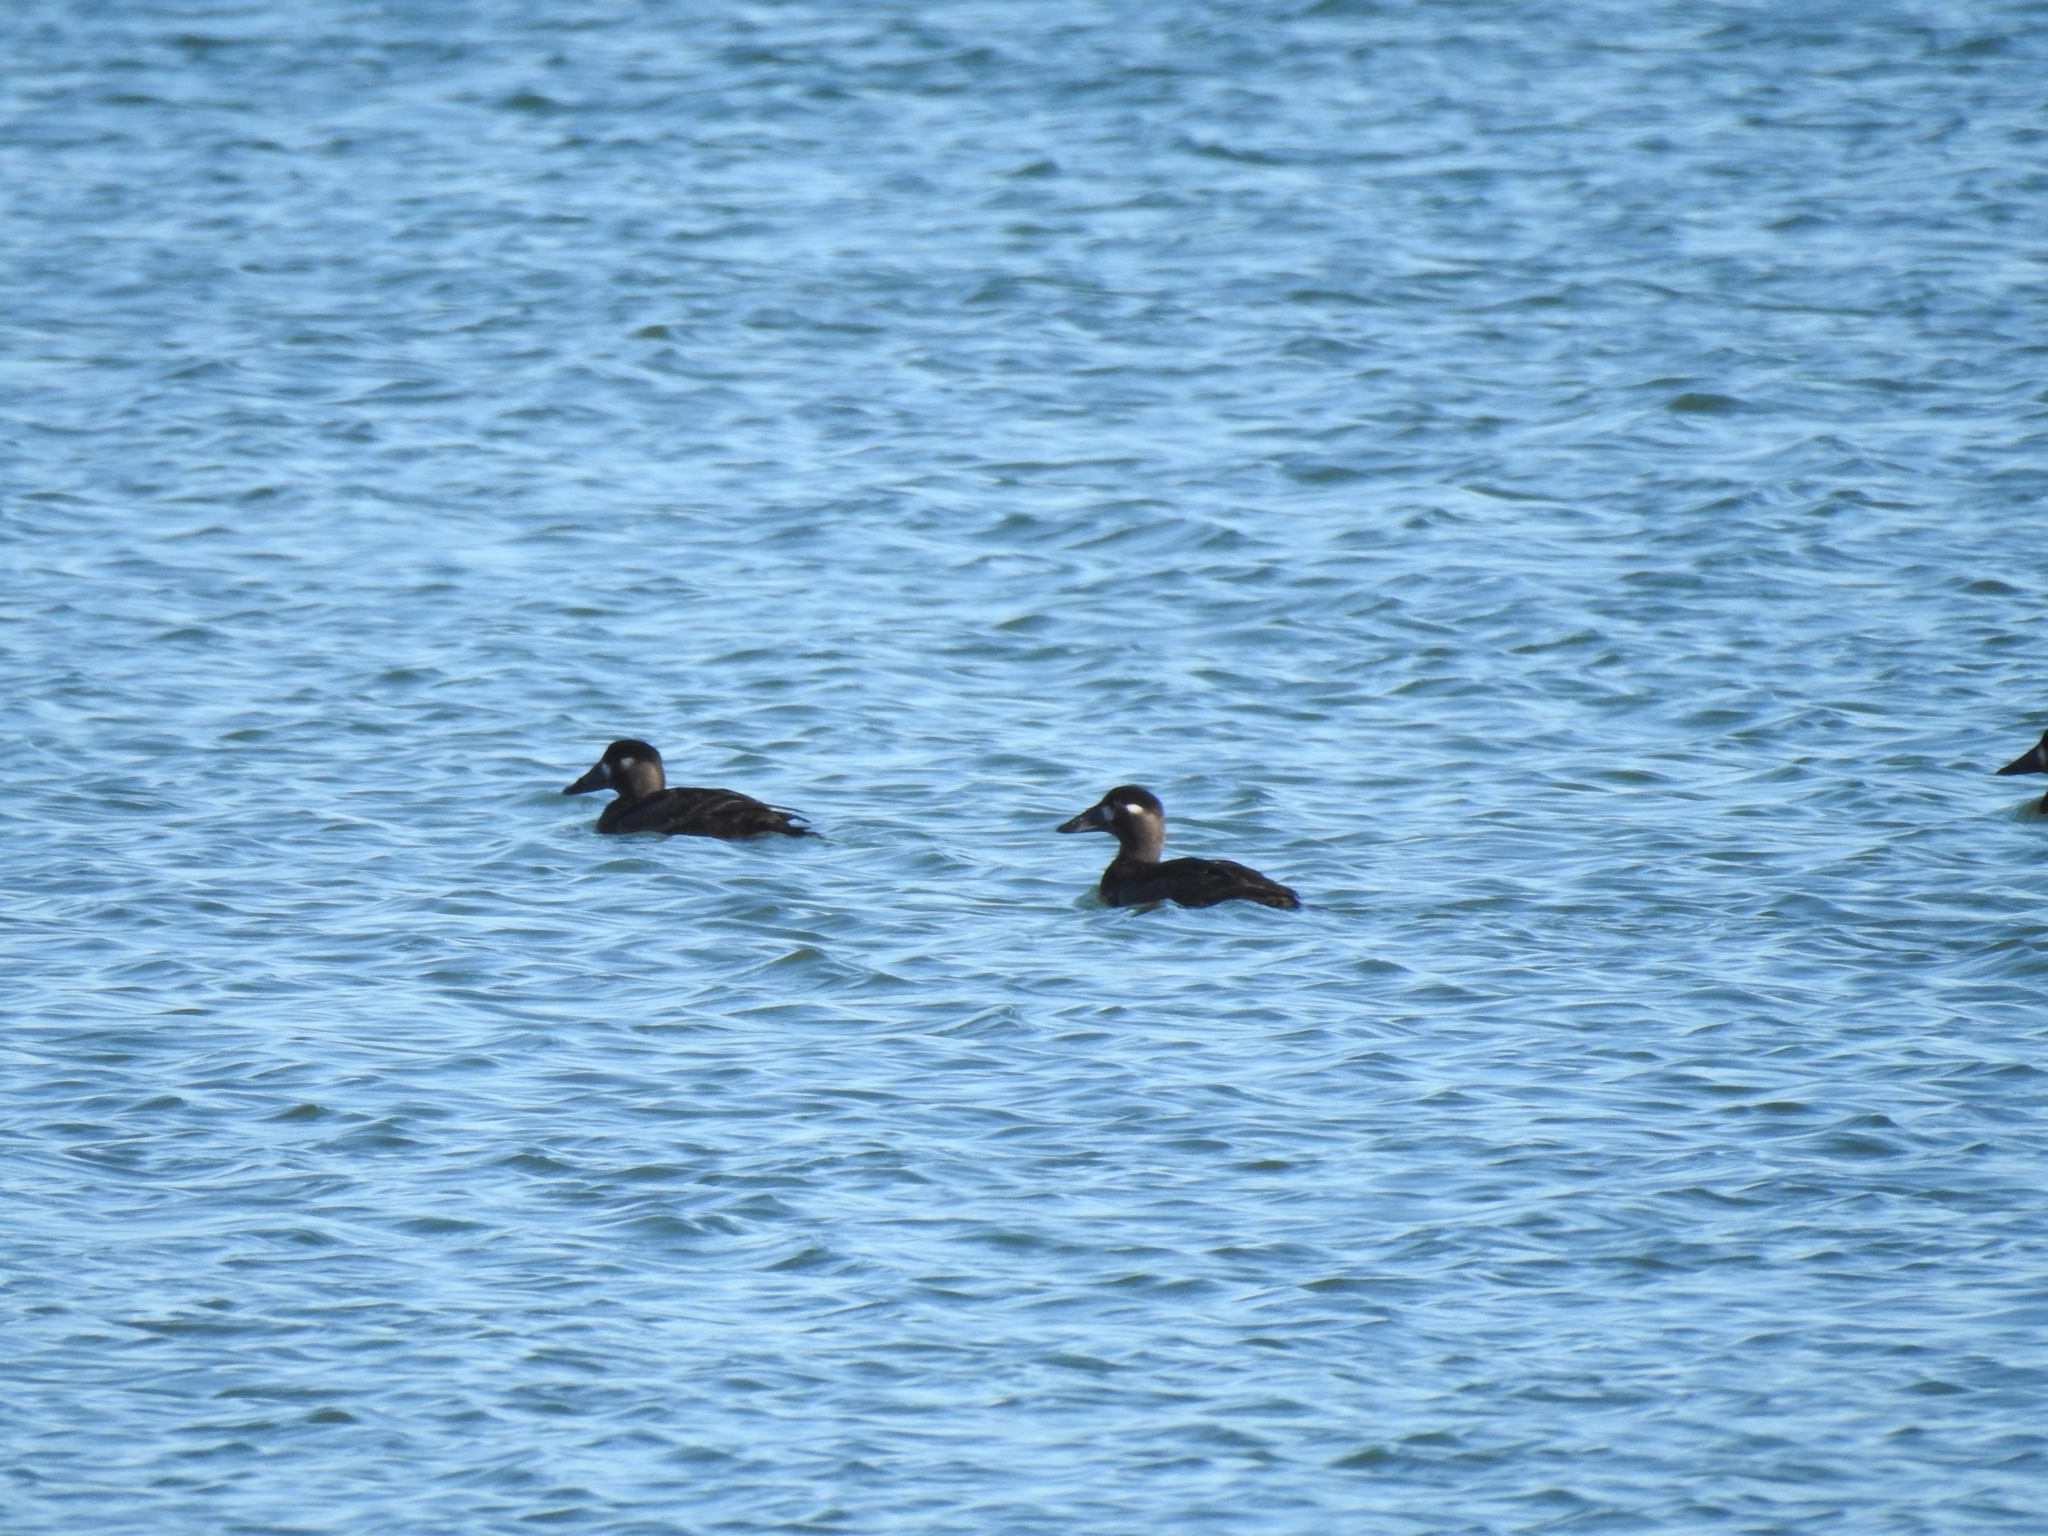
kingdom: Animalia
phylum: Chordata
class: Aves
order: Anseriformes
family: Anatidae
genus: Melanitta
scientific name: Melanitta perspicillata
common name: Surf scoter
